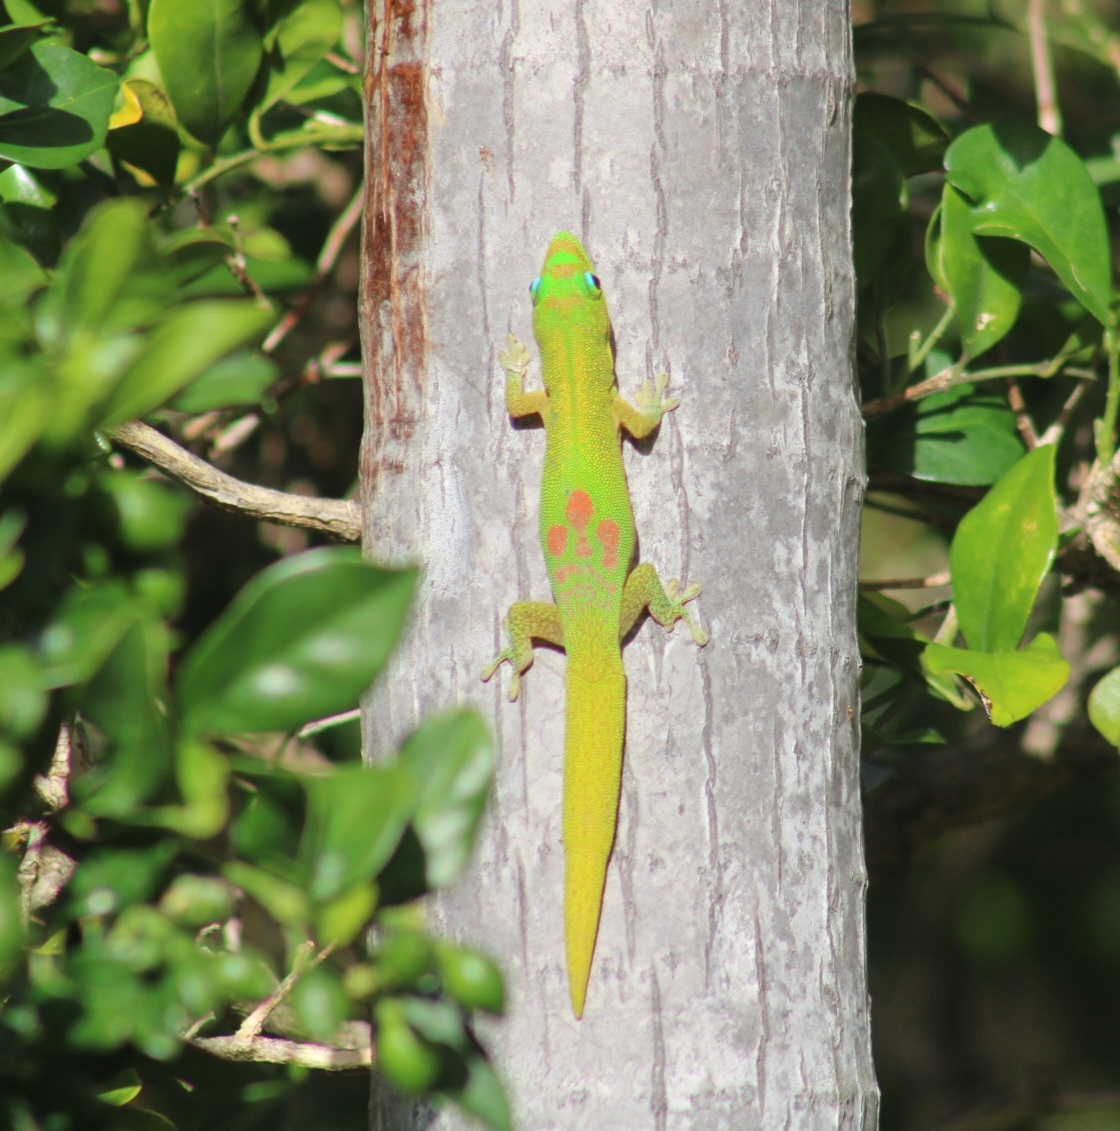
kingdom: Animalia
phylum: Chordata
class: Squamata
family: Gekkonidae
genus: Phelsuma
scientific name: Phelsuma laticauda
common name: Gold dust day gecko
